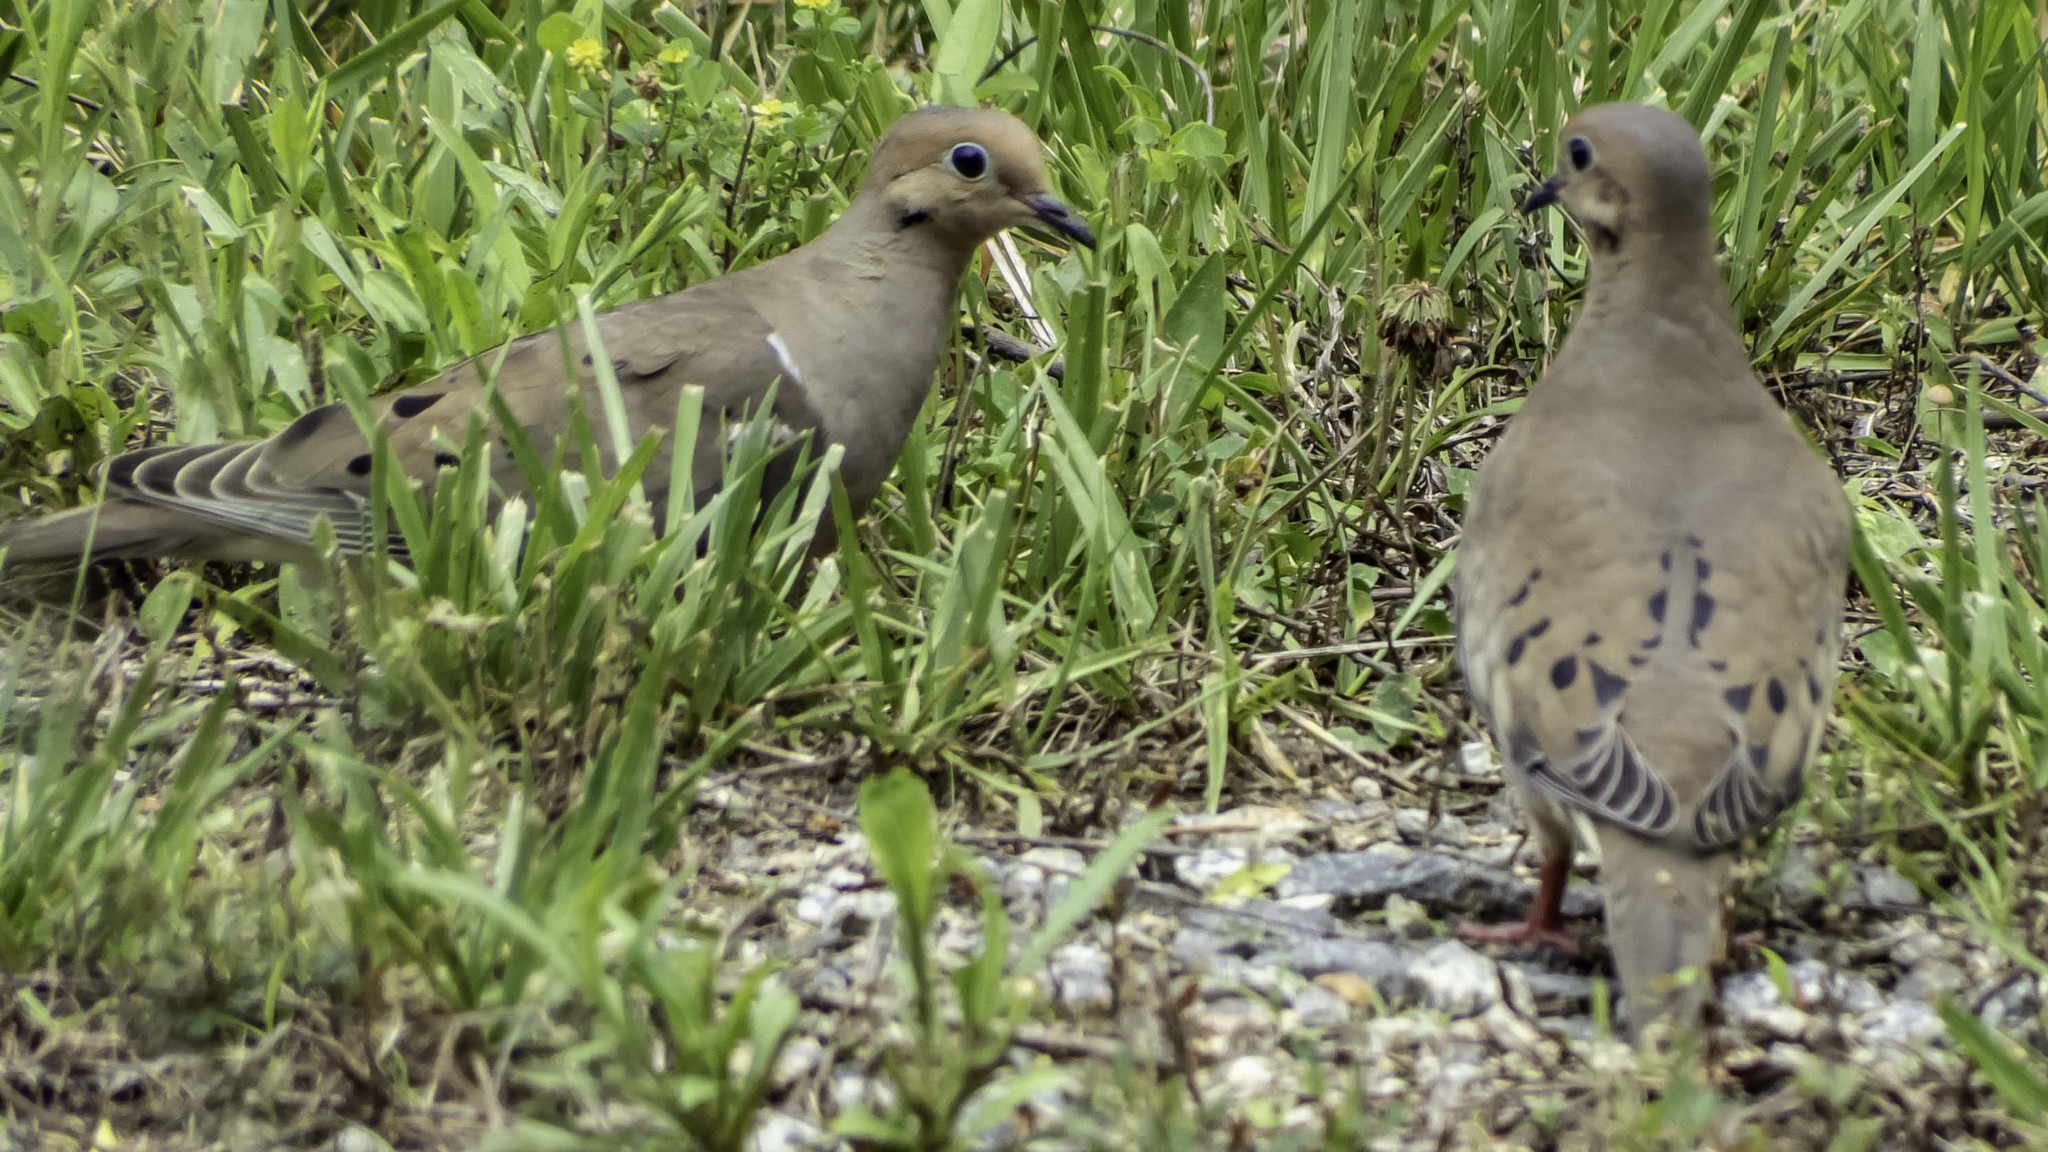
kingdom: Animalia
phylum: Chordata
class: Aves
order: Columbiformes
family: Columbidae
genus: Zenaida
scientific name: Zenaida macroura
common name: Mourning dove
